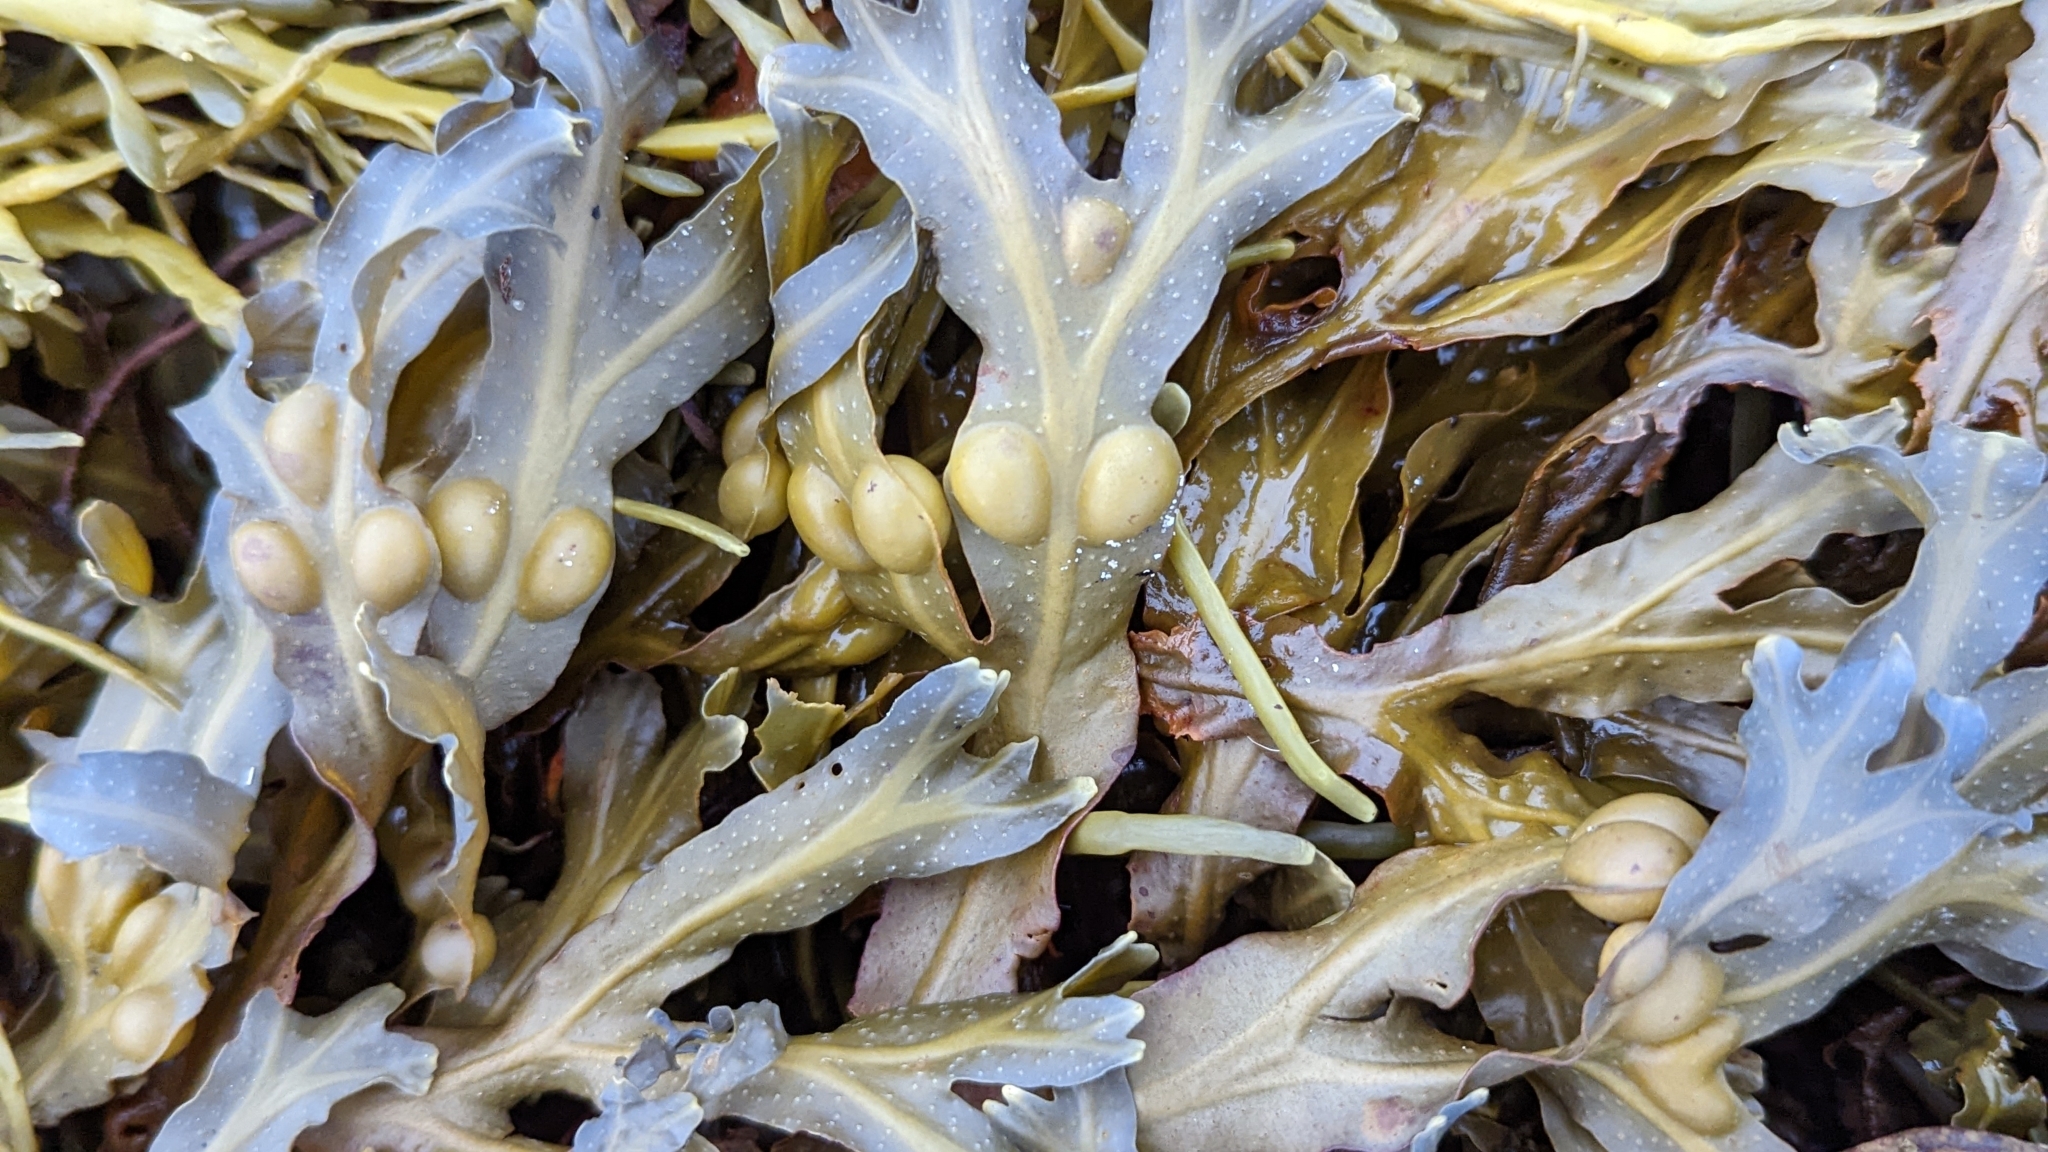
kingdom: Chromista
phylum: Ochrophyta
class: Phaeophyceae
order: Fucales
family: Fucaceae
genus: Fucus
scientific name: Fucus vesiculosus
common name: Bladder wrack
